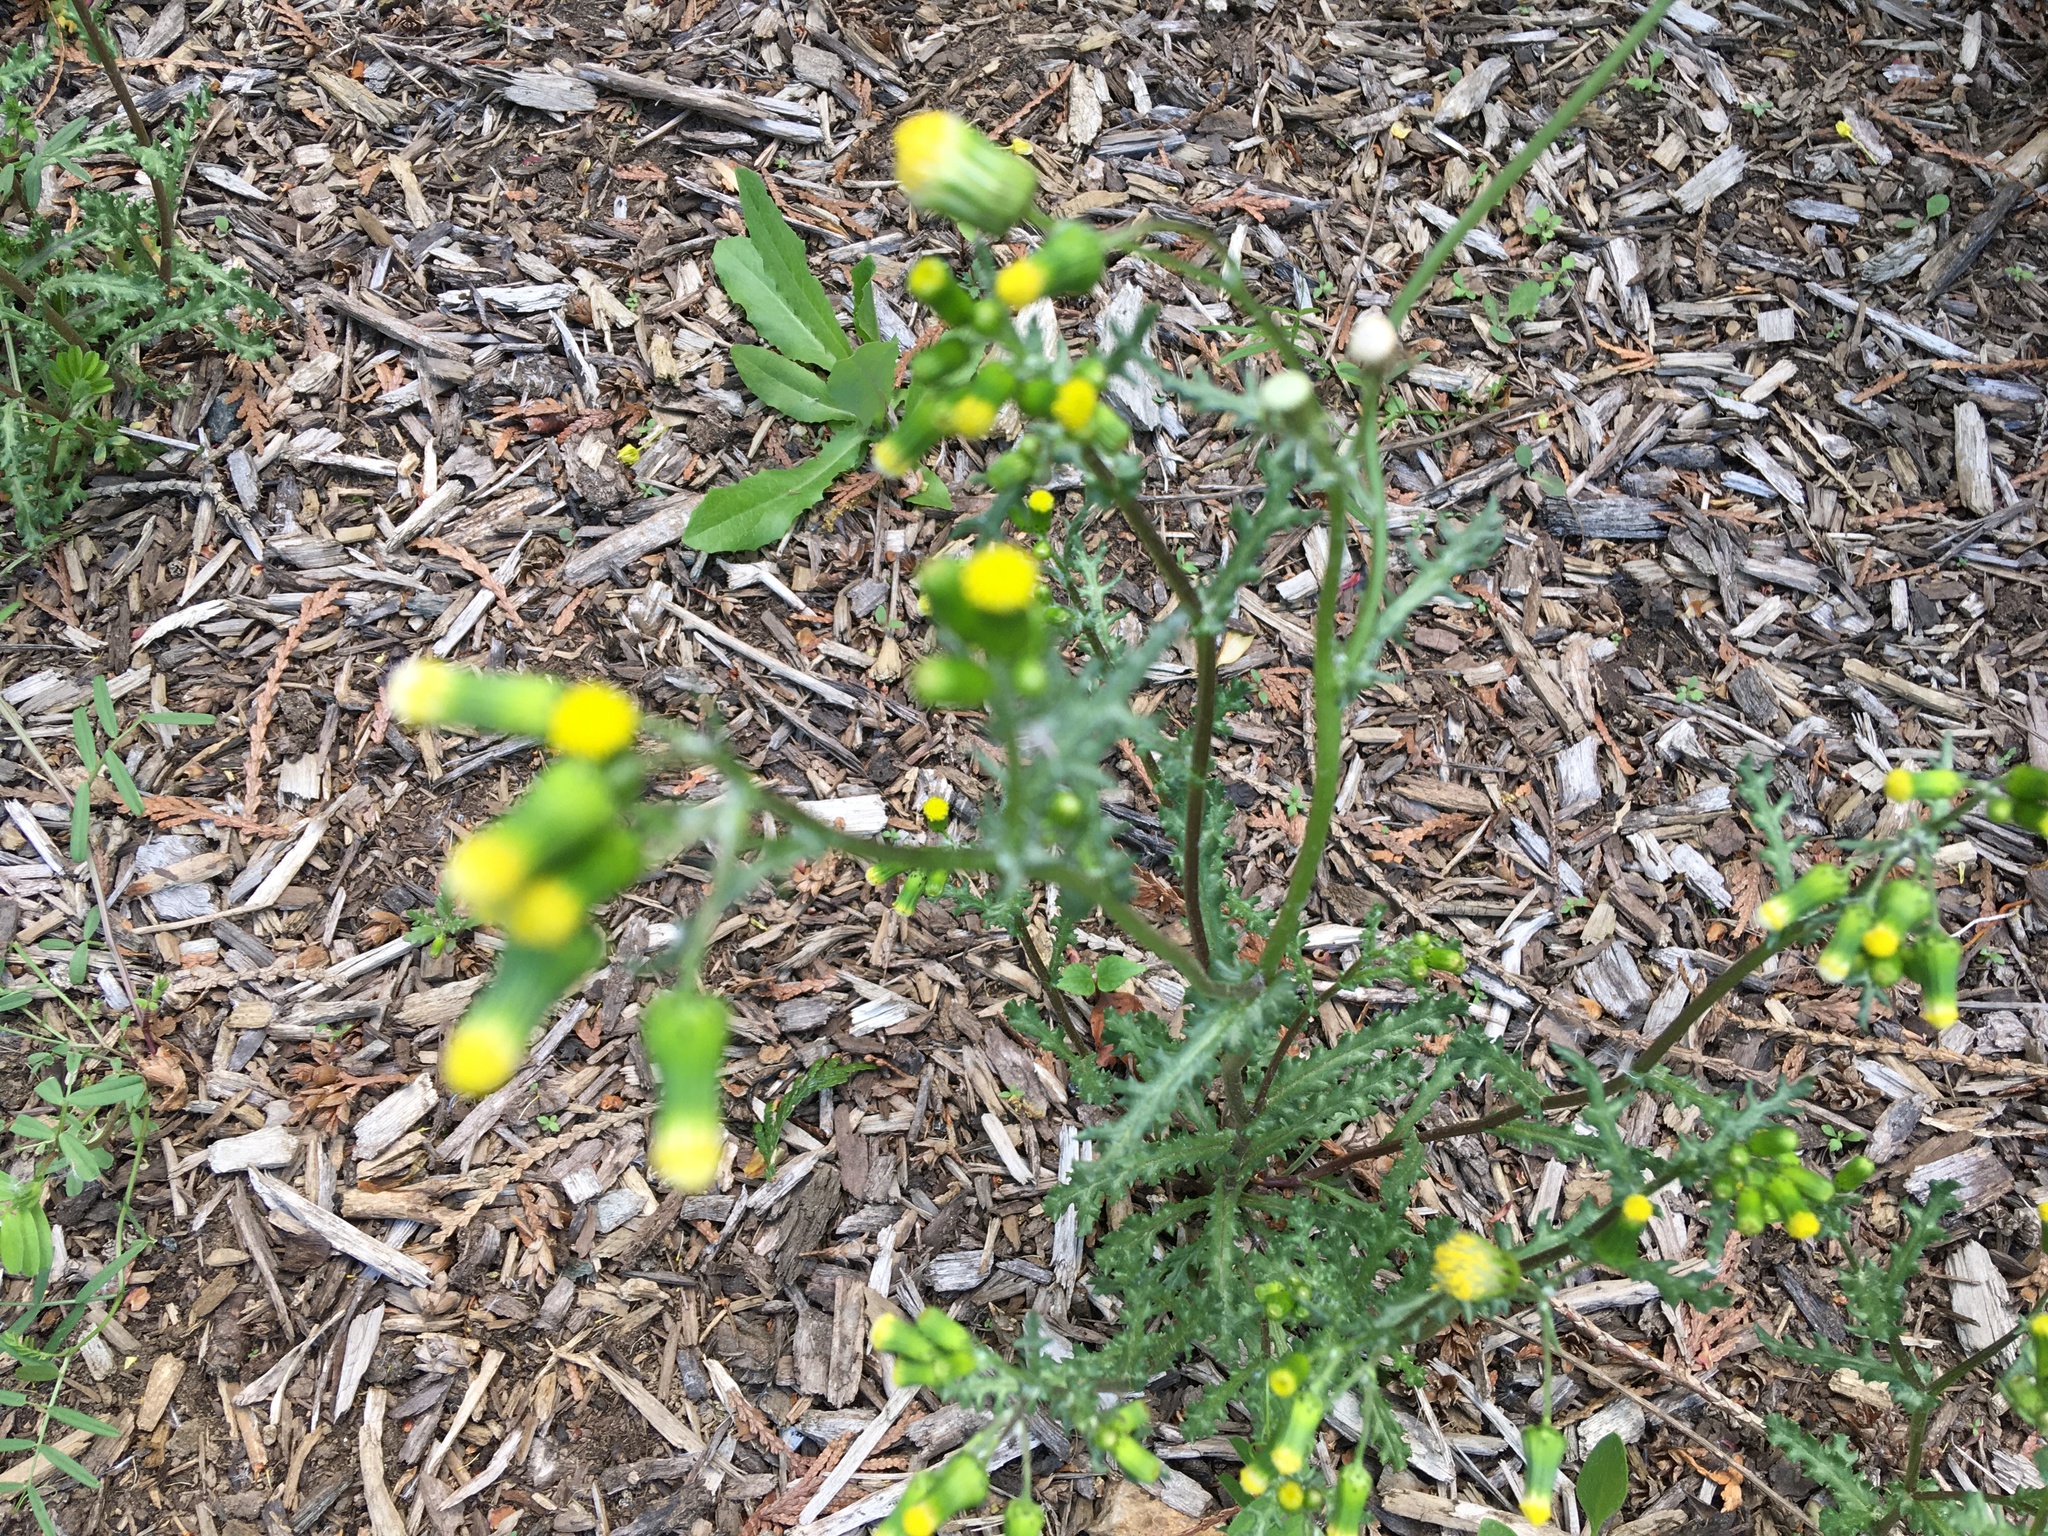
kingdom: Plantae
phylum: Tracheophyta
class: Magnoliopsida
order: Asterales
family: Asteraceae
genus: Senecio
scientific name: Senecio vulgaris
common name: Old-man-in-the-spring
